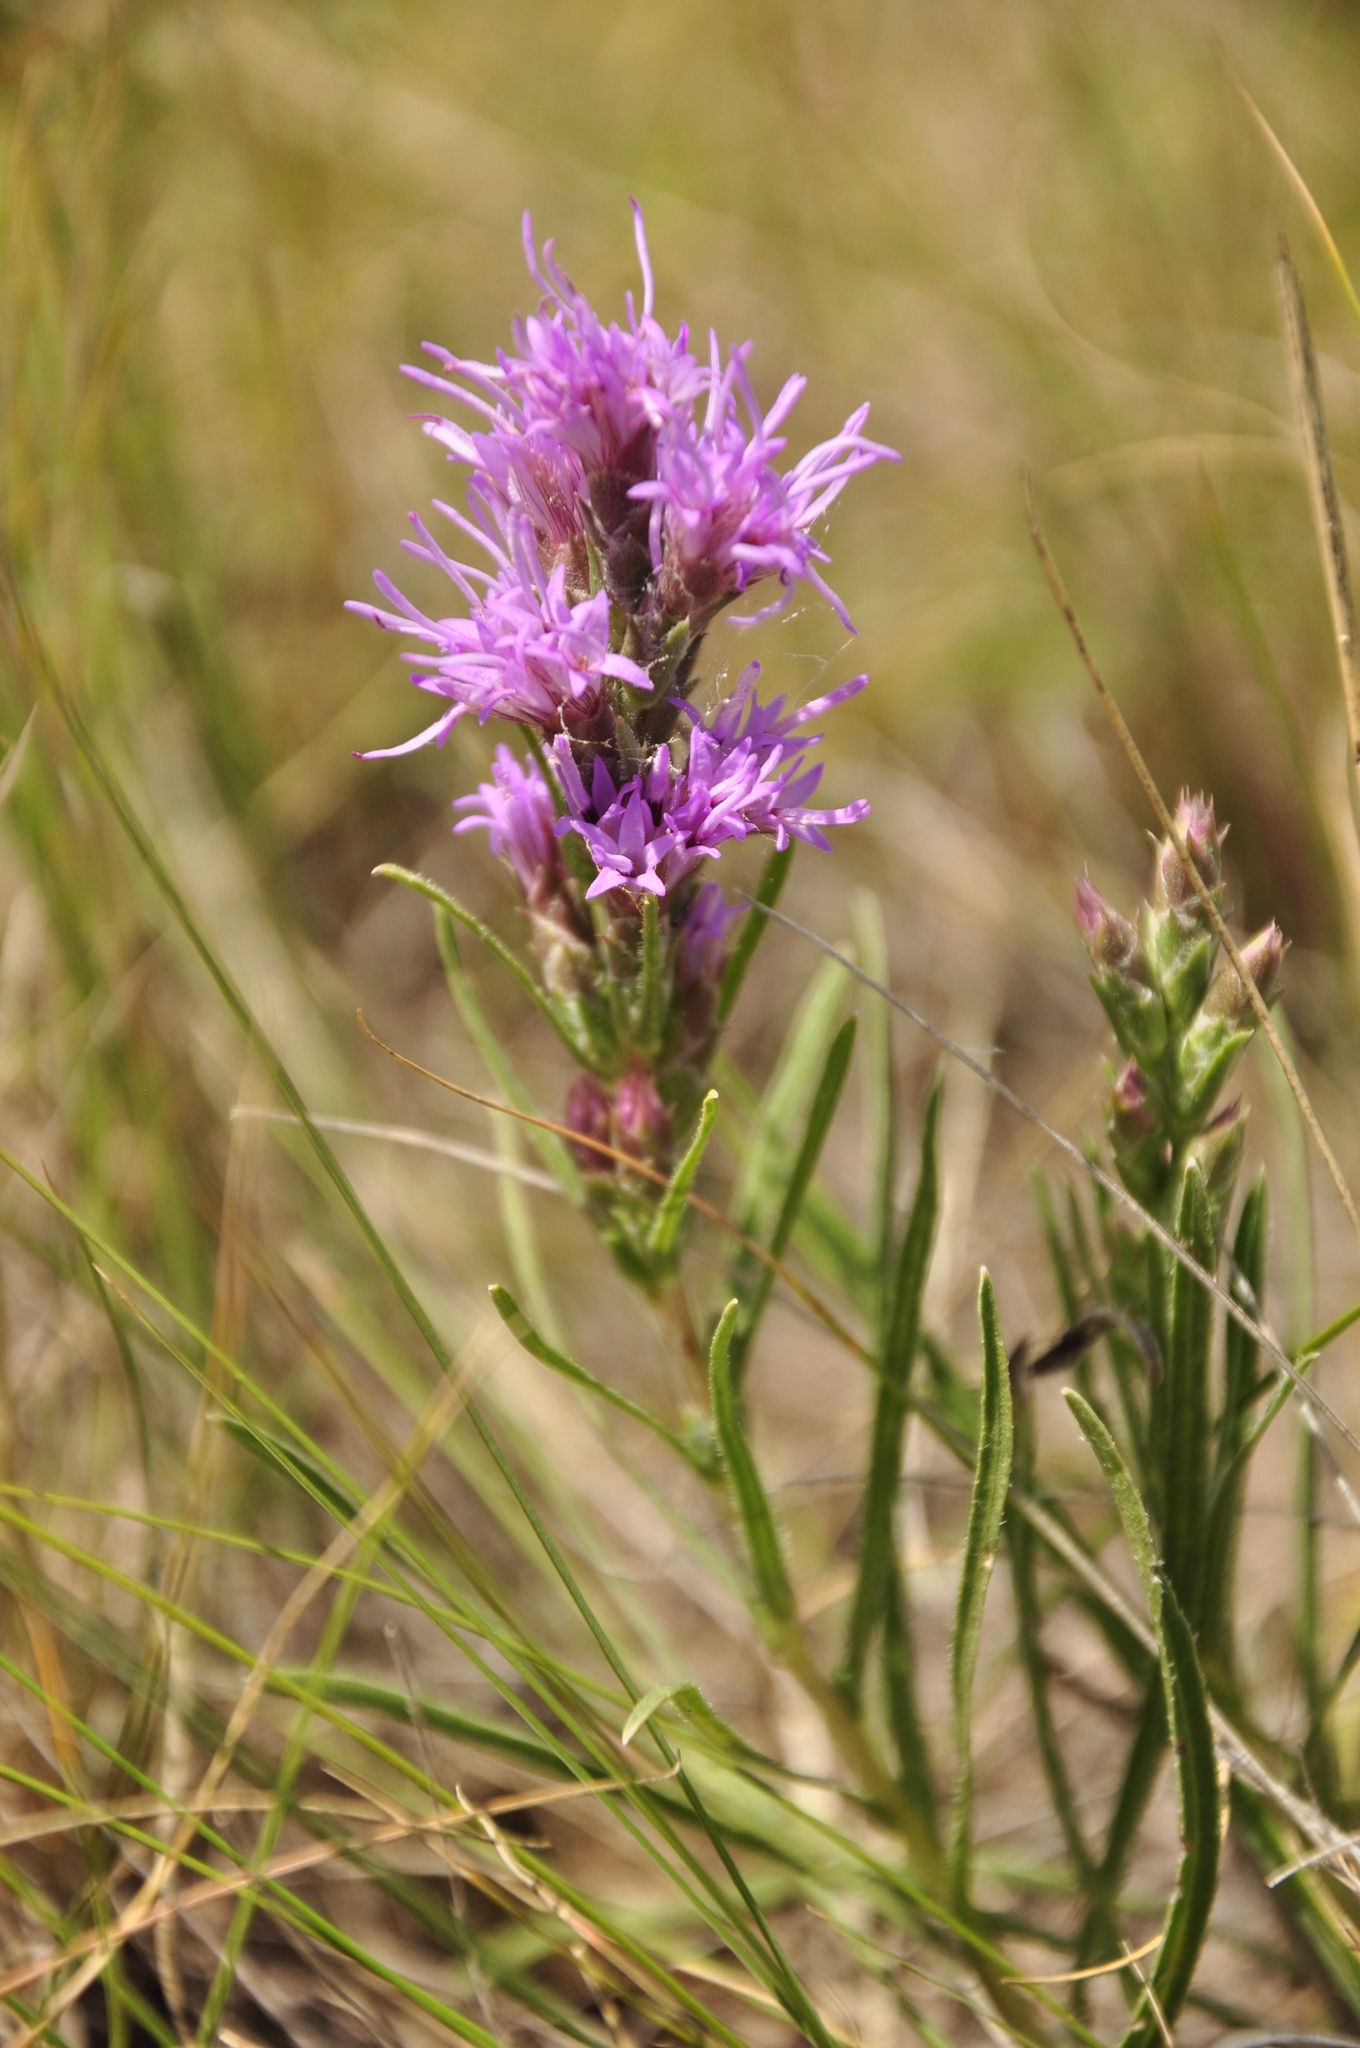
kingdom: Plantae
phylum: Tracheophyta
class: Magnoliopsida
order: Asterales
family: Asteraceae
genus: Liatris
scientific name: Liatris punctata
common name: Dotted gayfeather
